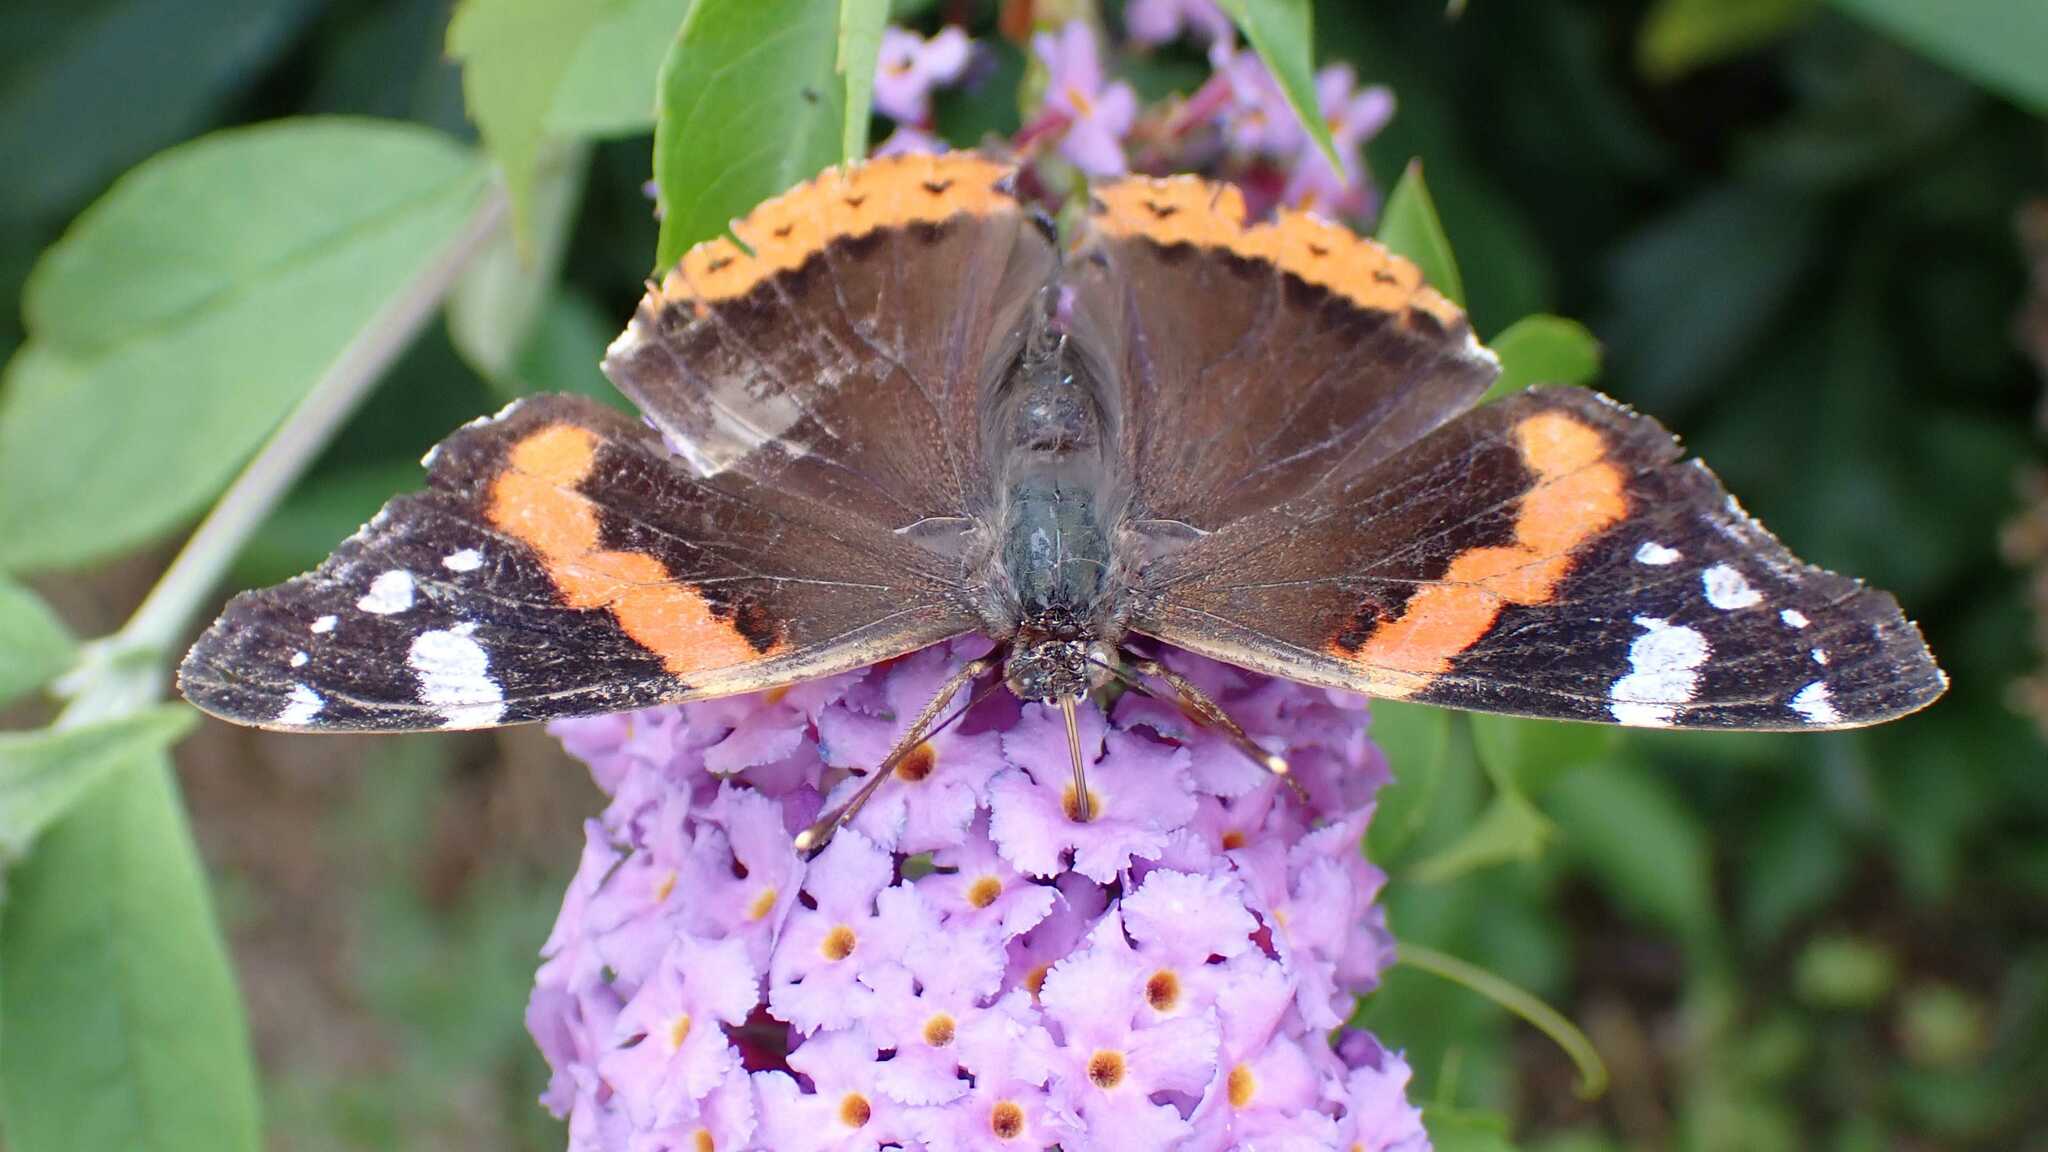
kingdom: Animalia
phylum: Arthropoda
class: Insecta
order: Lepidoptera
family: Nymphalidae
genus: Vanessa
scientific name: Vanessa atalanta
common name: Red admiral
